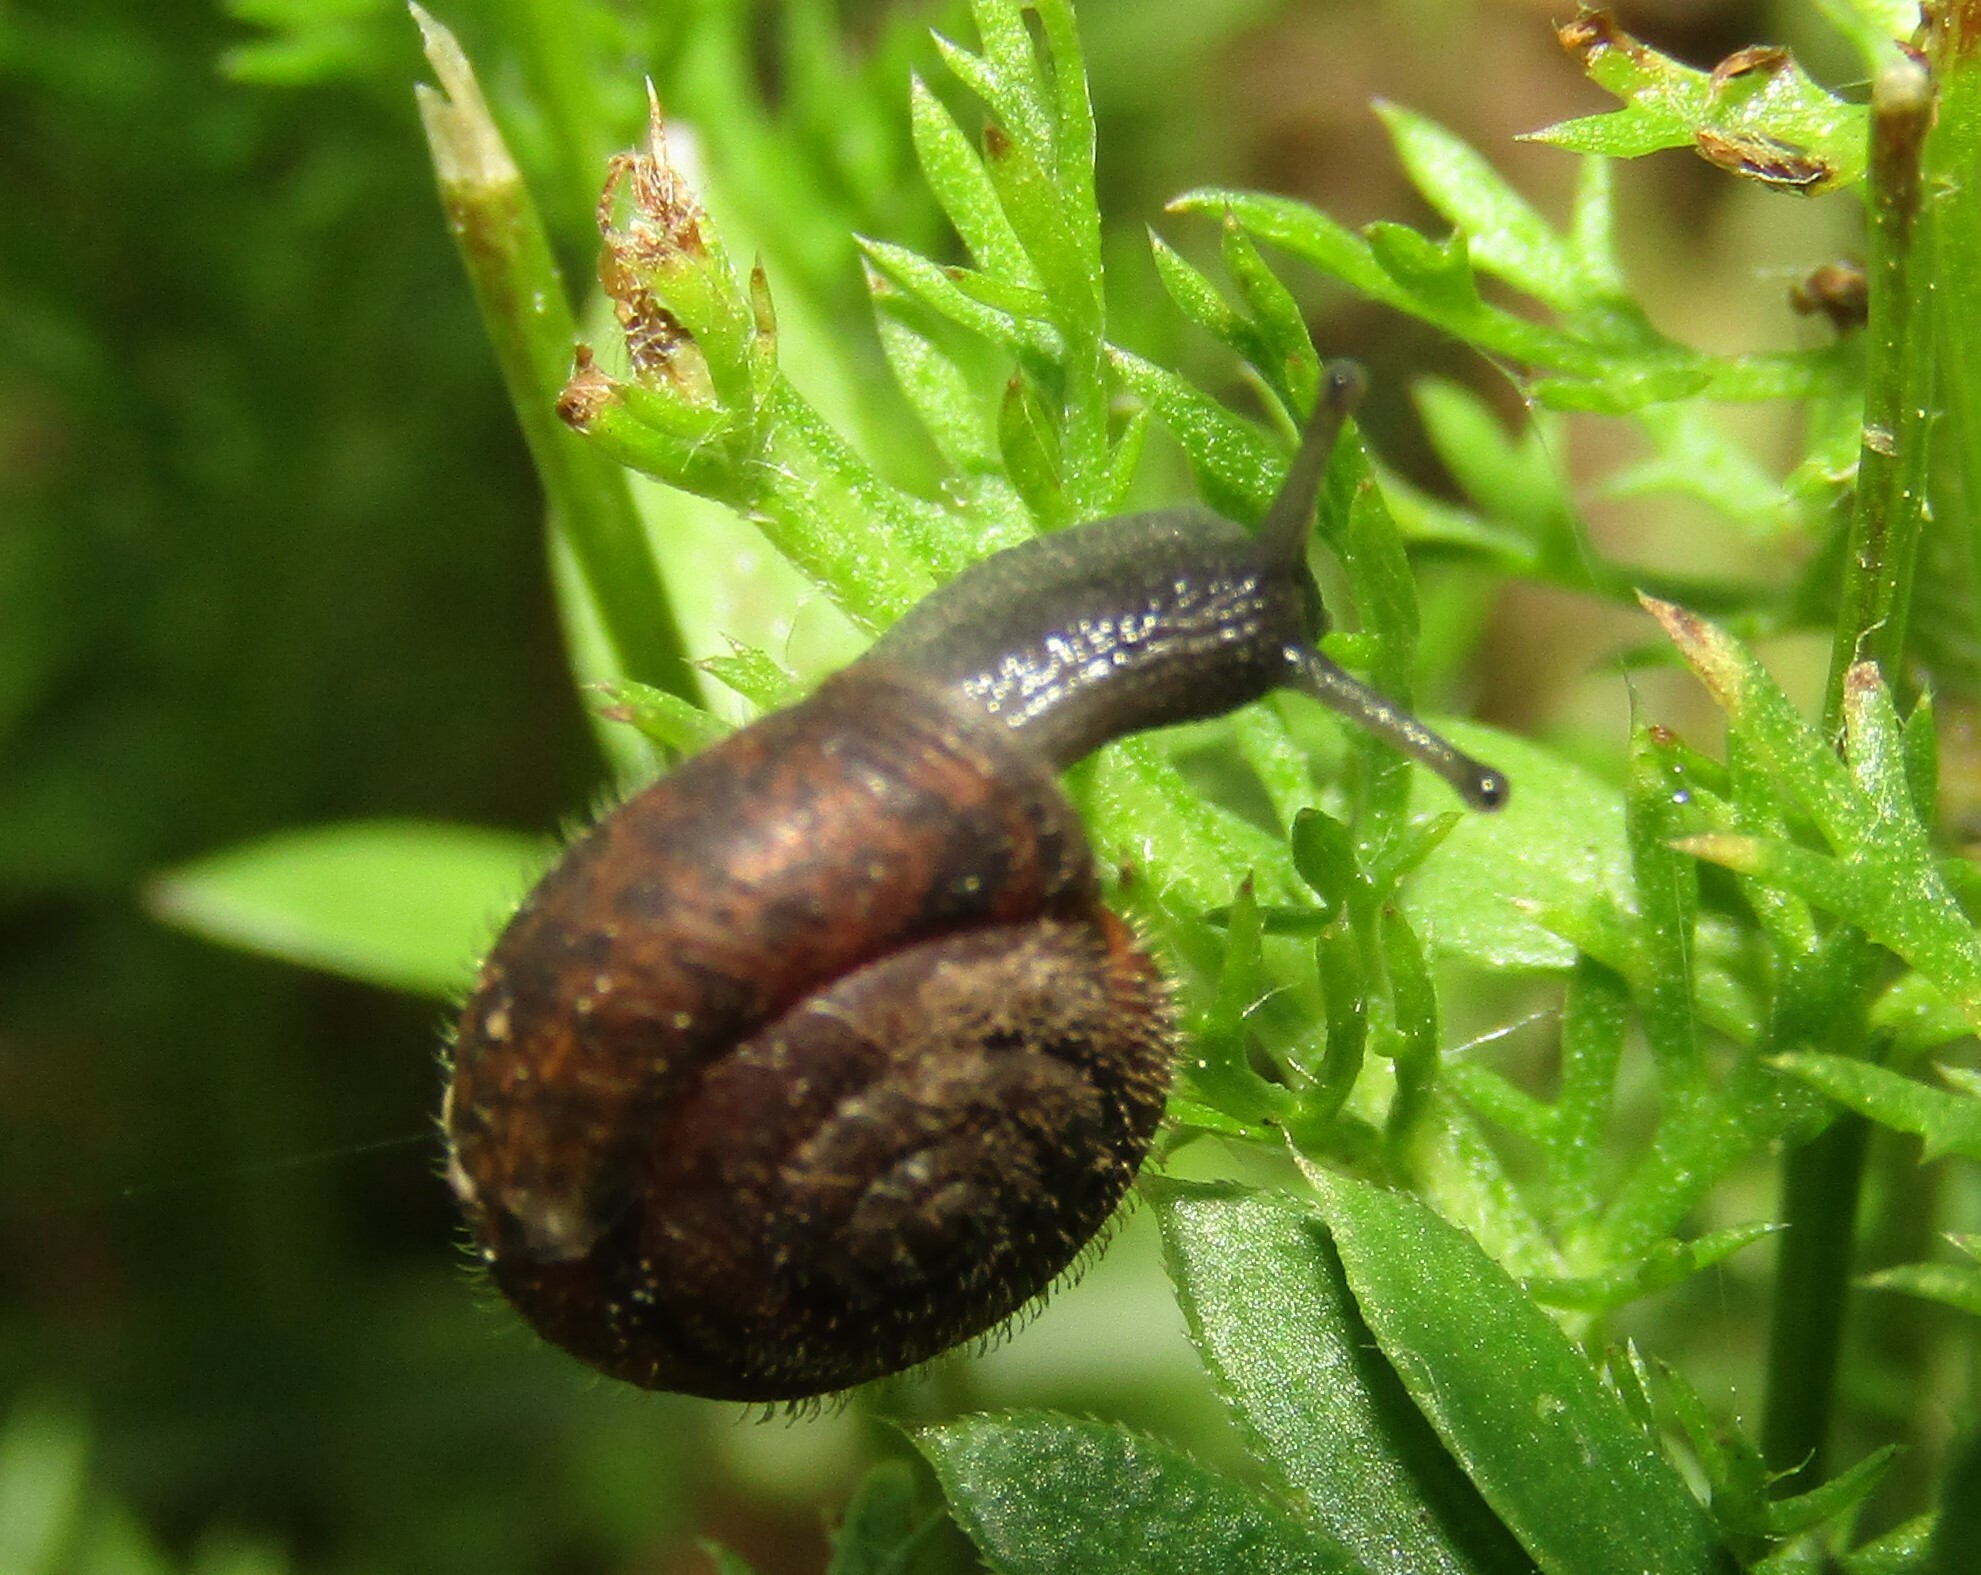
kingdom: Animalia
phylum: Mollusca
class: Gastropoda
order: Stylommatophora
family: Hygromiidae
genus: Trochulus
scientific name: Trochulus hispidus
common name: Hairy snail
